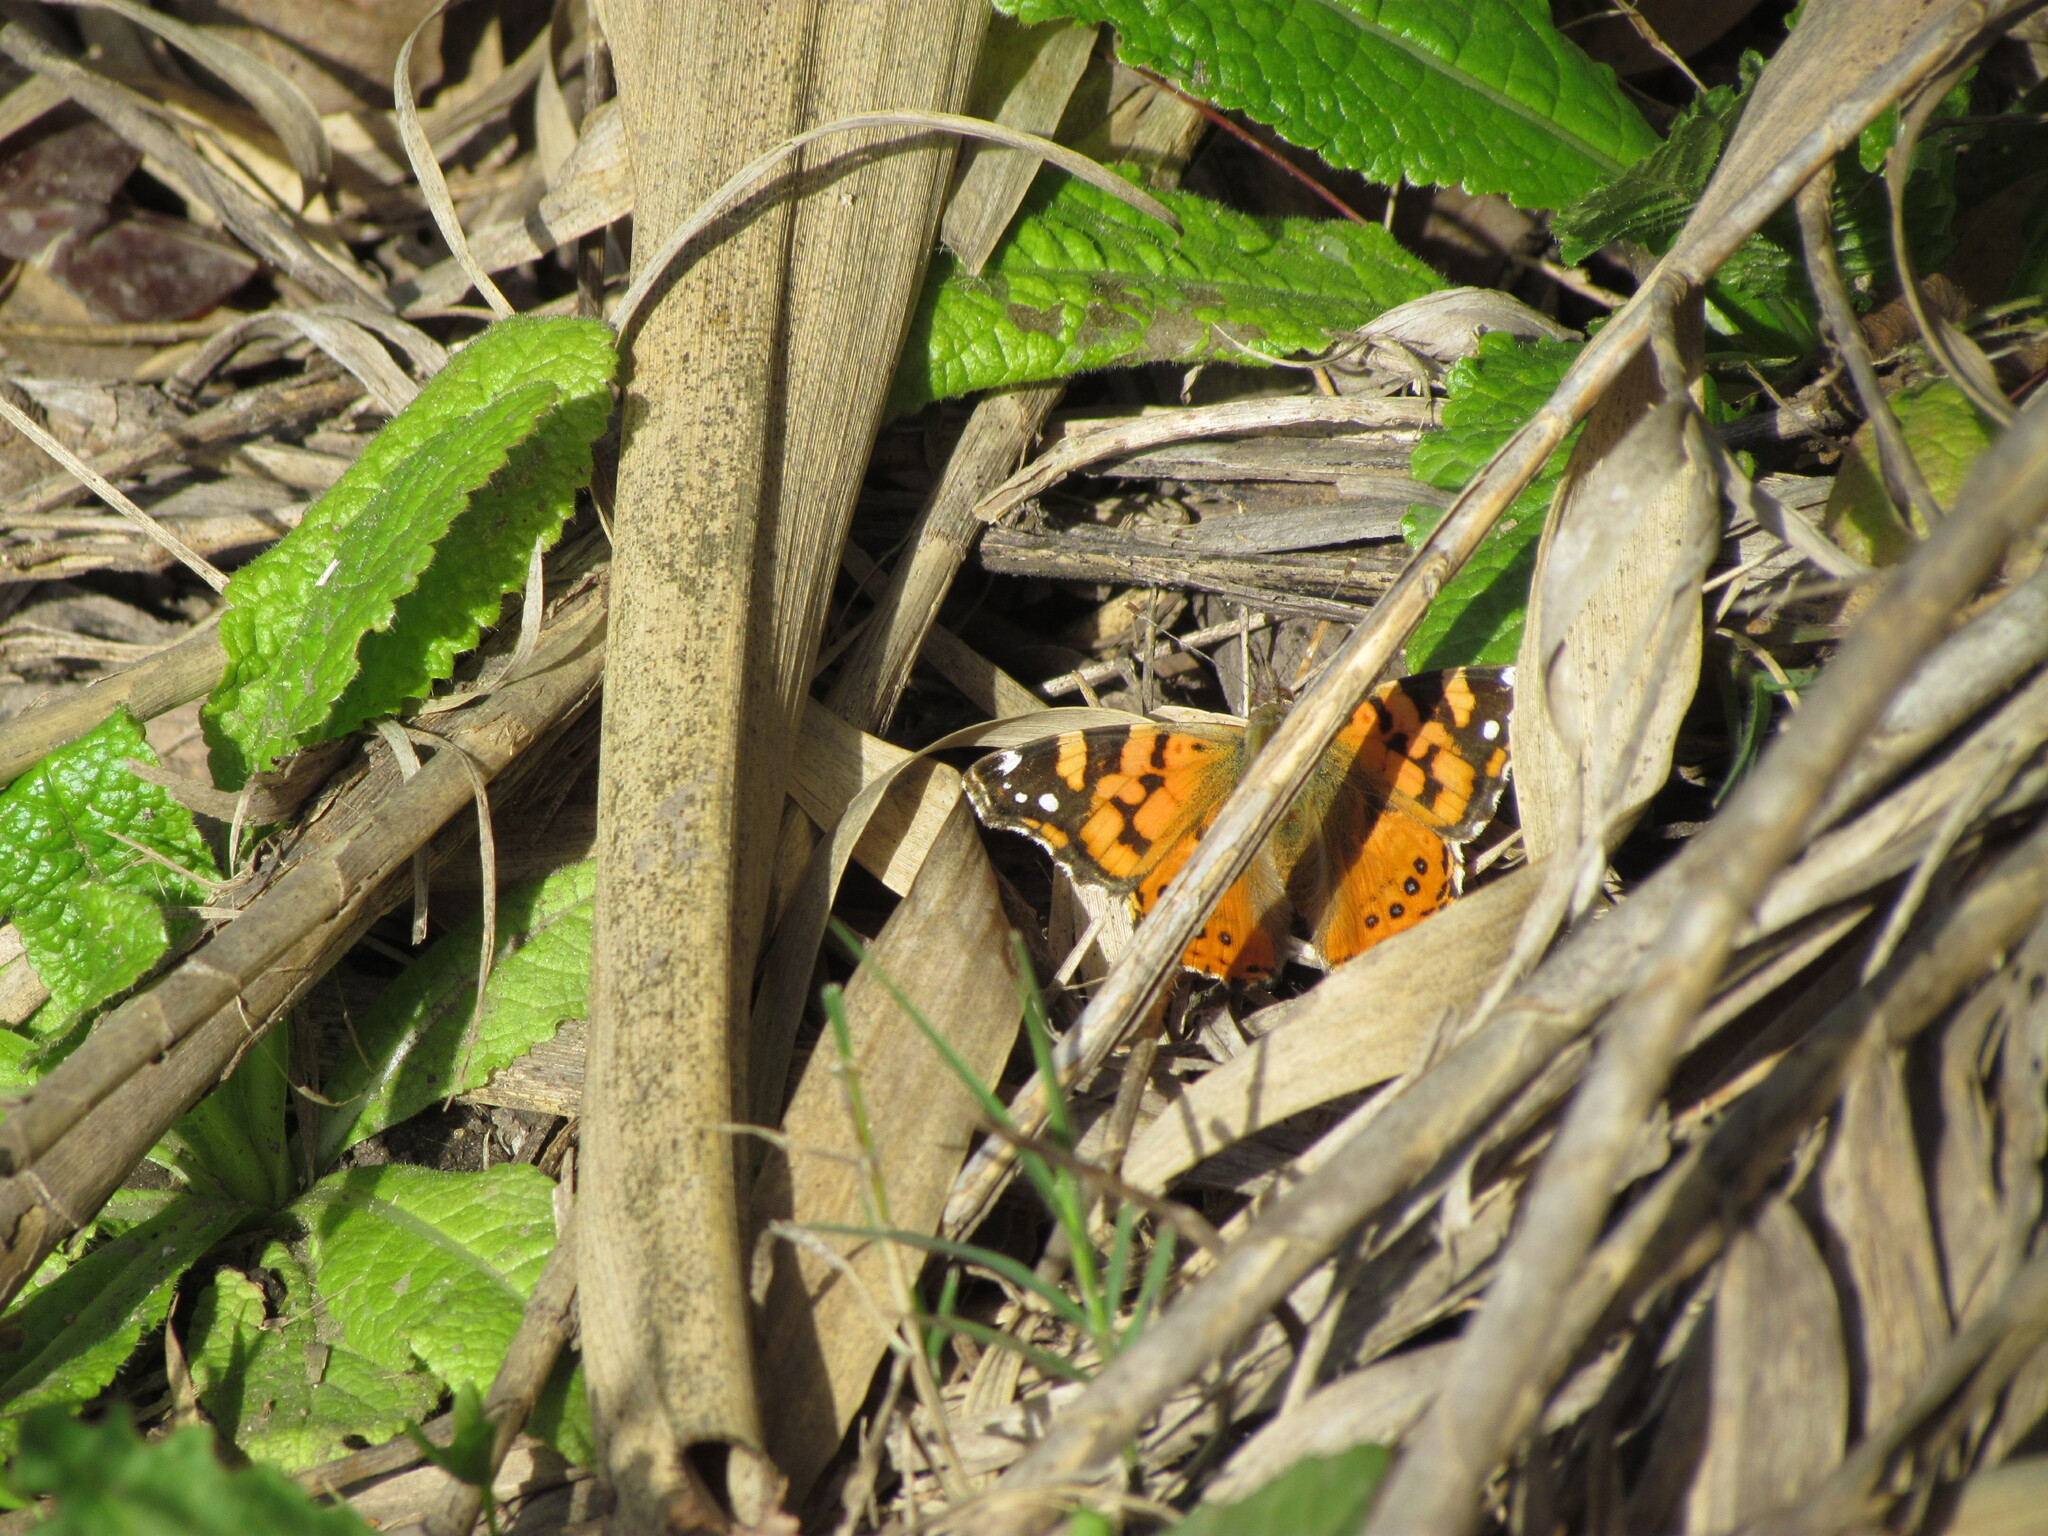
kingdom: Animalia
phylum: Arthropoda
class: Insecta
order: Lepidoptera
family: Nymphalidae
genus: Vanessa
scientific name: Vanessa carye
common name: Subtropical lady
